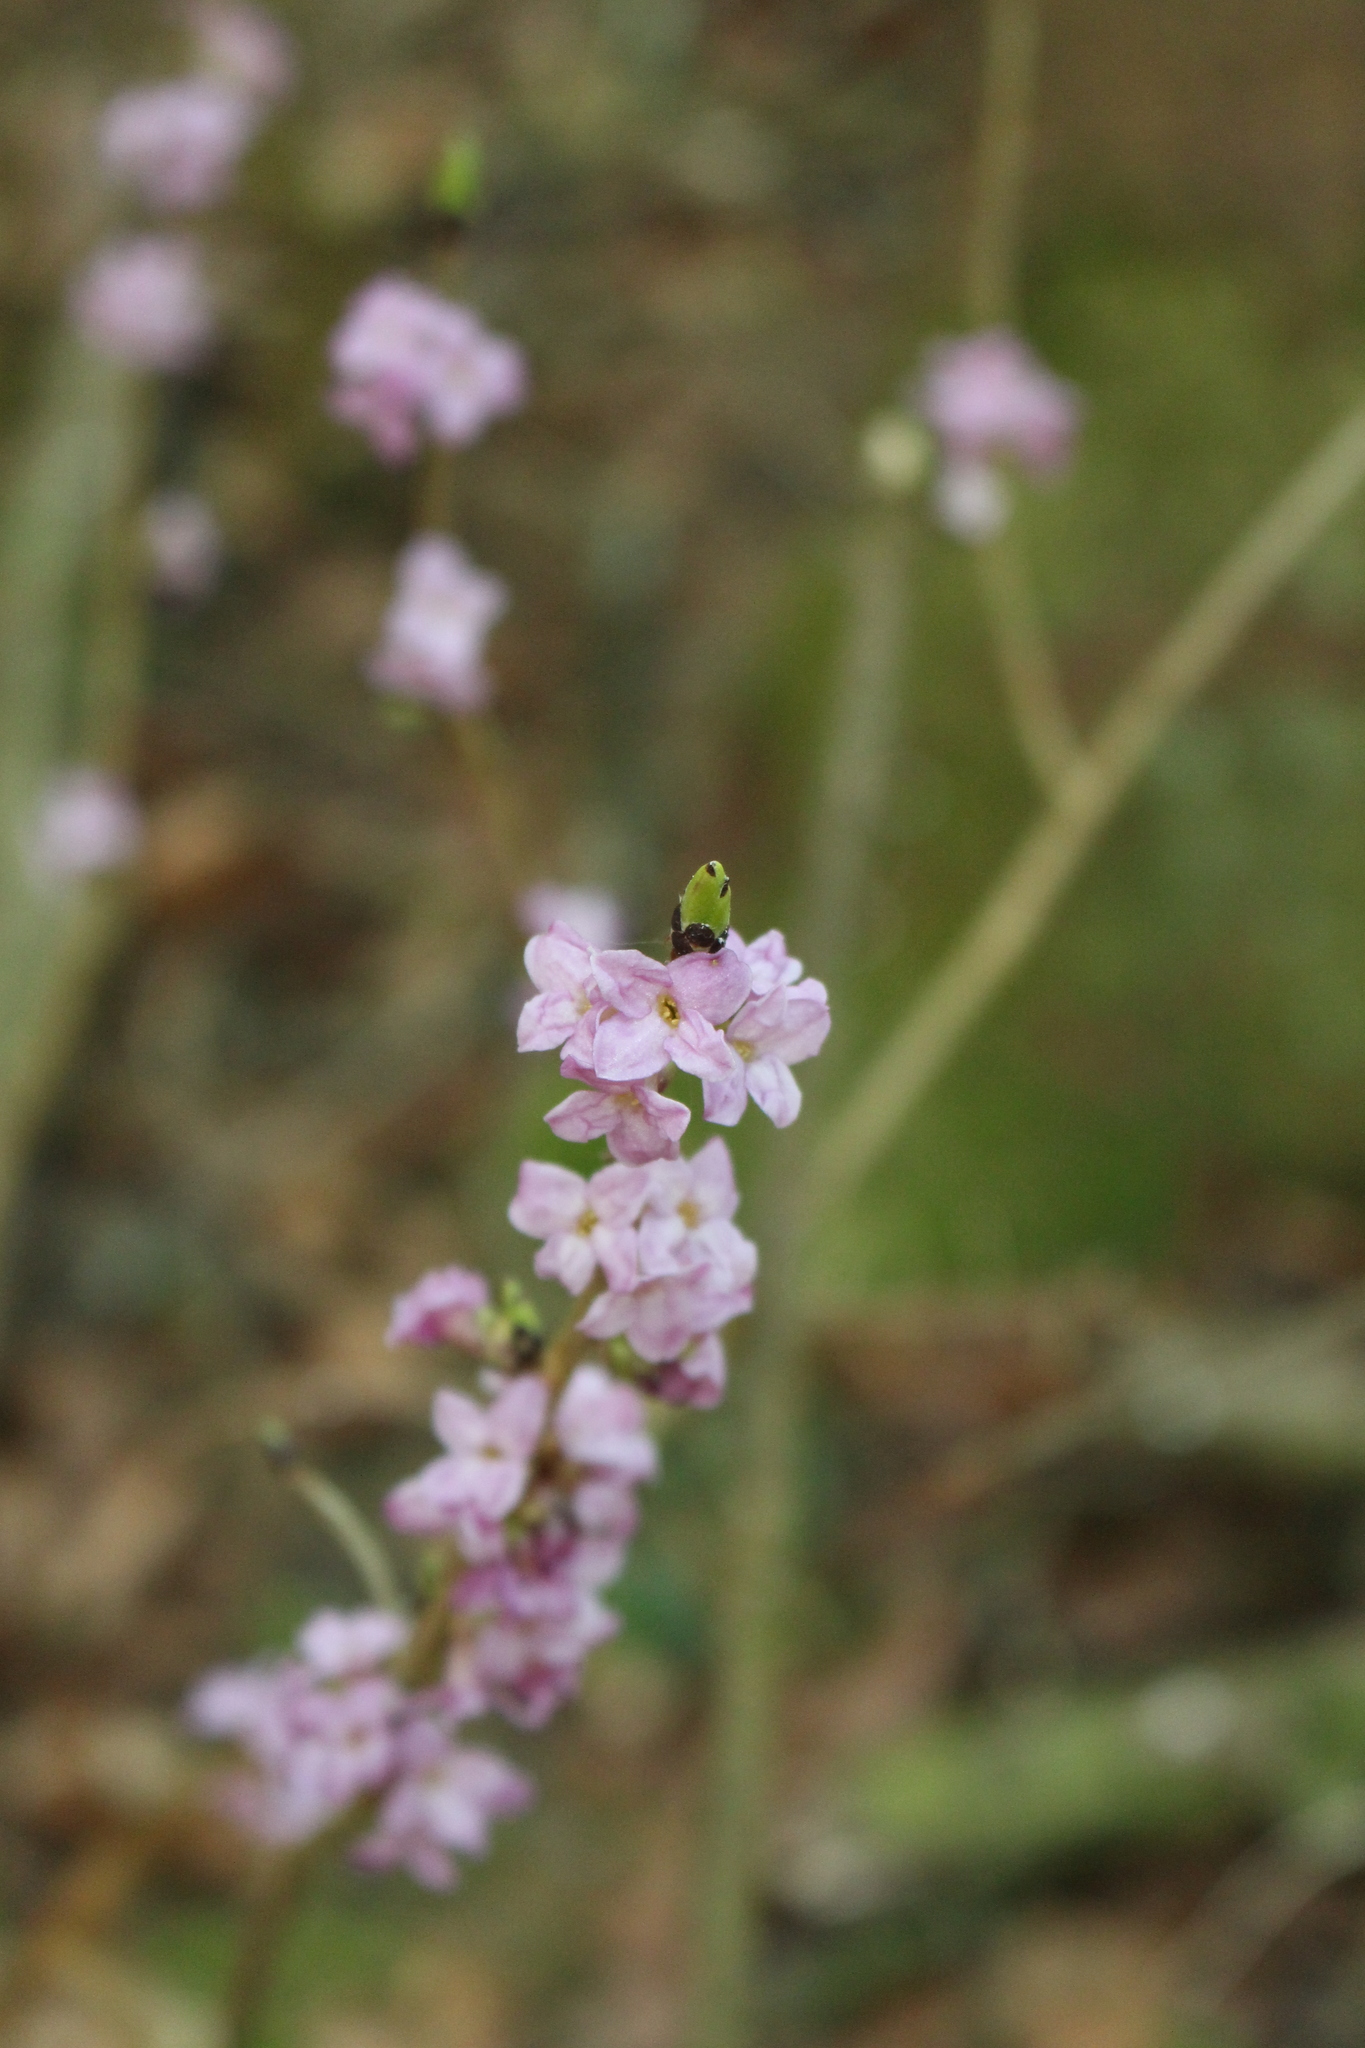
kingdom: Plantae
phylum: Tracheophyta
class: Magnoliopsida
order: Malvales
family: Thymelaeaceae
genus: Daphne
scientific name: Daphne mezereum
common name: Mezereon
